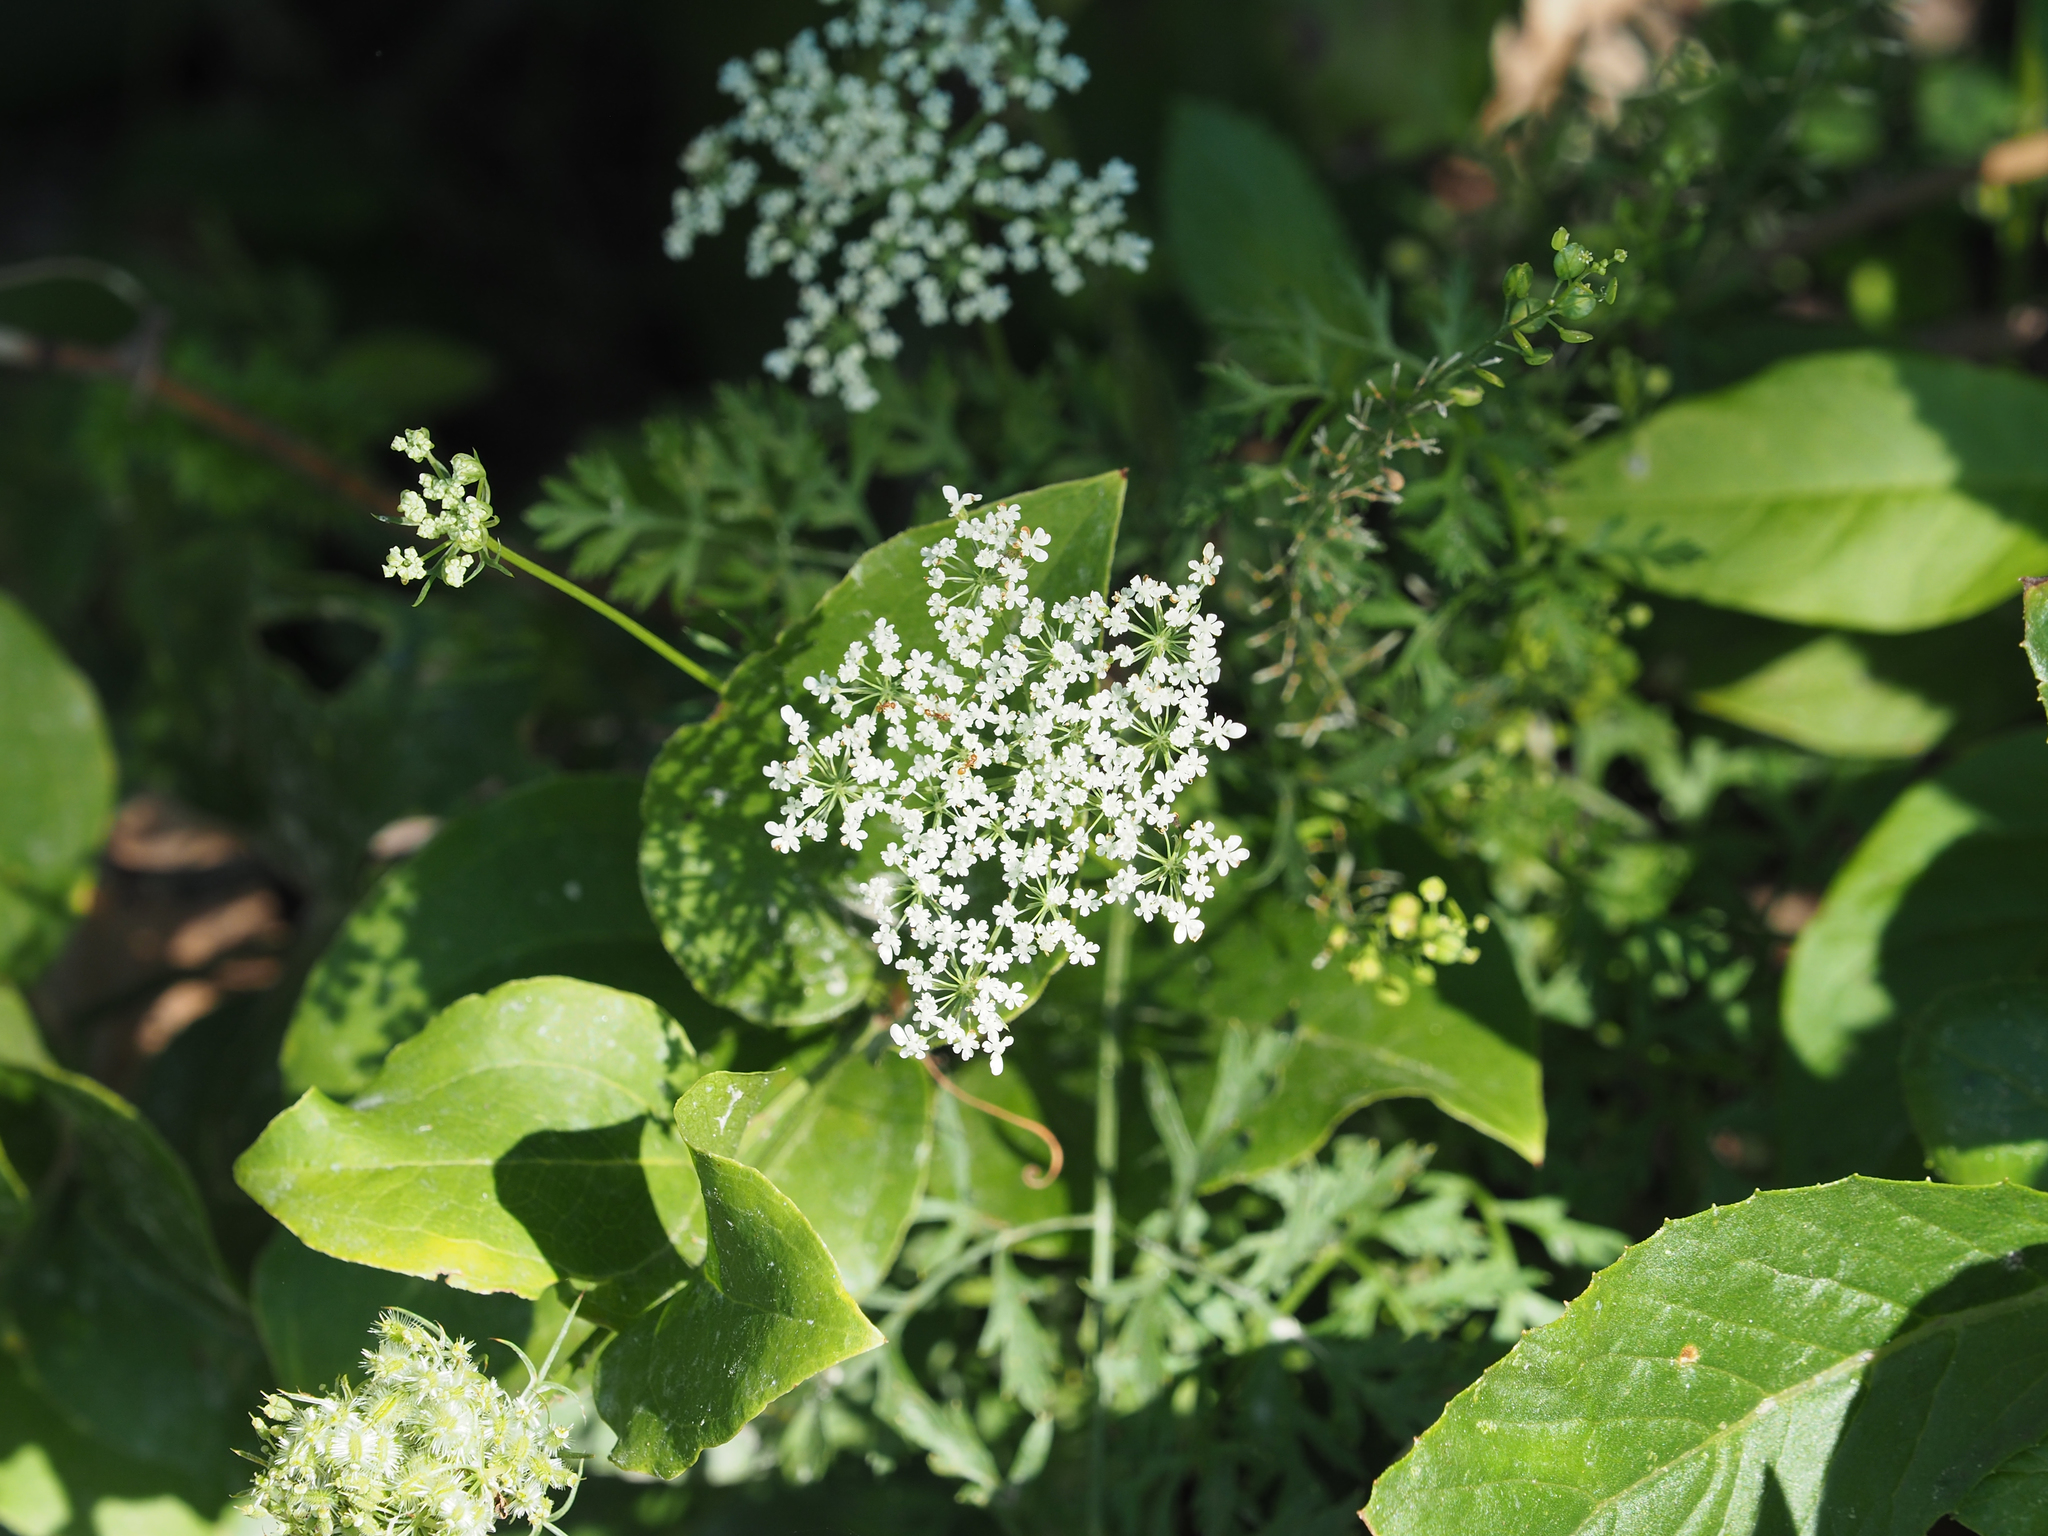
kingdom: Plantae
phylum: Tracheophyta
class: Magnoliopsida
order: Apiales
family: Apiaceae
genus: Daucus
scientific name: Daucus carota
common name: Wild carrot
